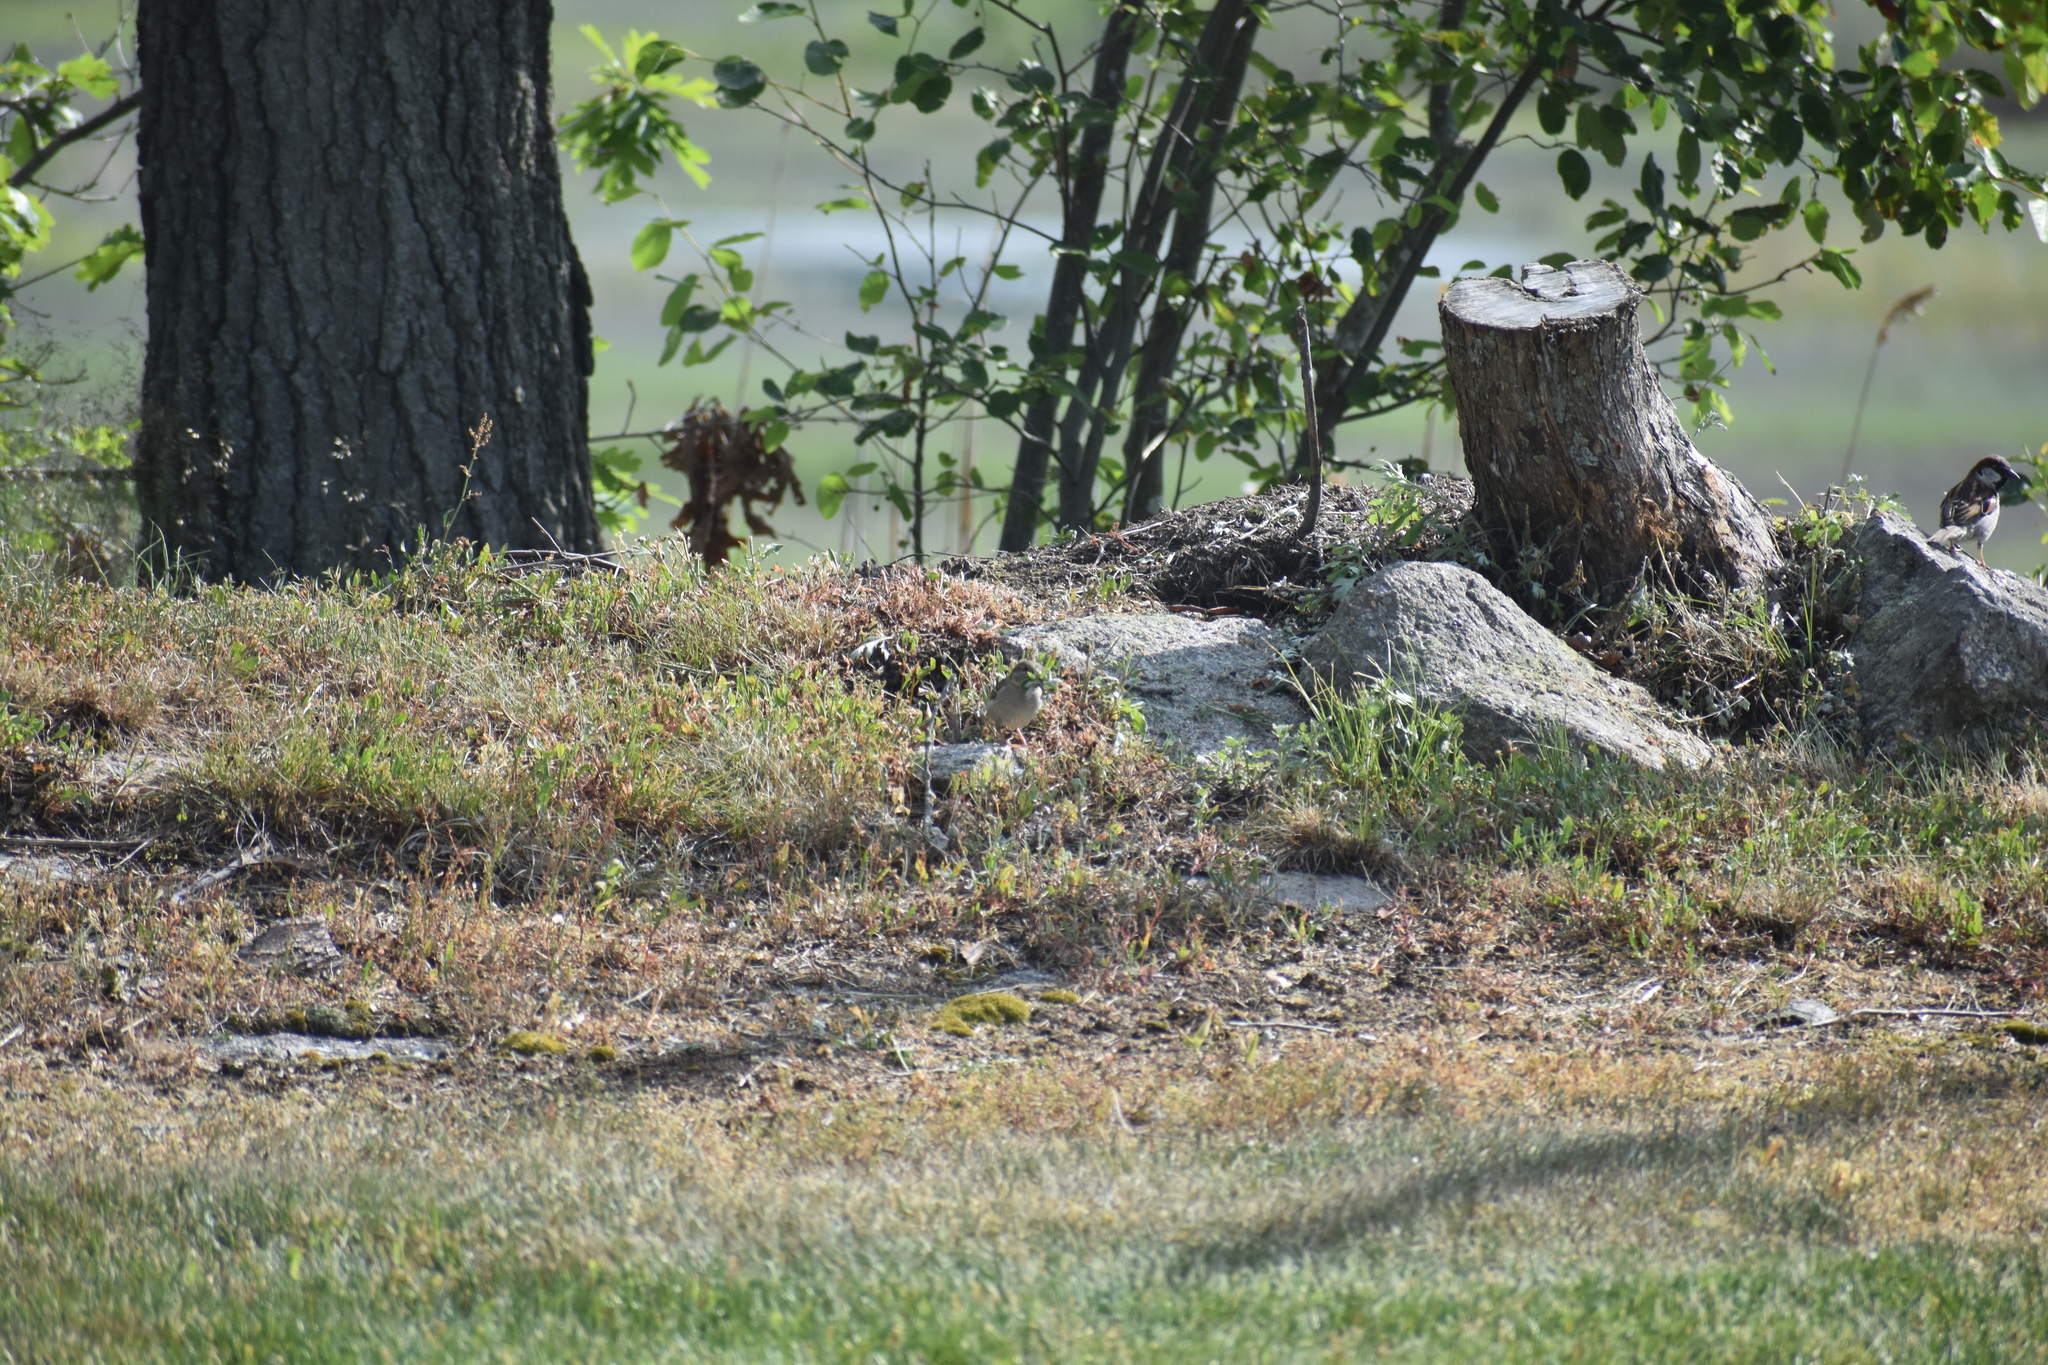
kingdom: Animalia
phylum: Chordata
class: Aves
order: Passeriformes
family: Passeridae
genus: Passer
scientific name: Passer domesticus
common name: House sparrow
